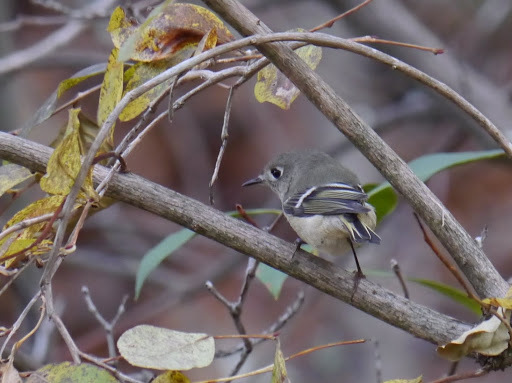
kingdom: Animalia
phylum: Chordata
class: Aves
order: Passeriformes
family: Regulidae
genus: Regulus
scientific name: Regulus calendula
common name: Ruby-crowned kinglet
